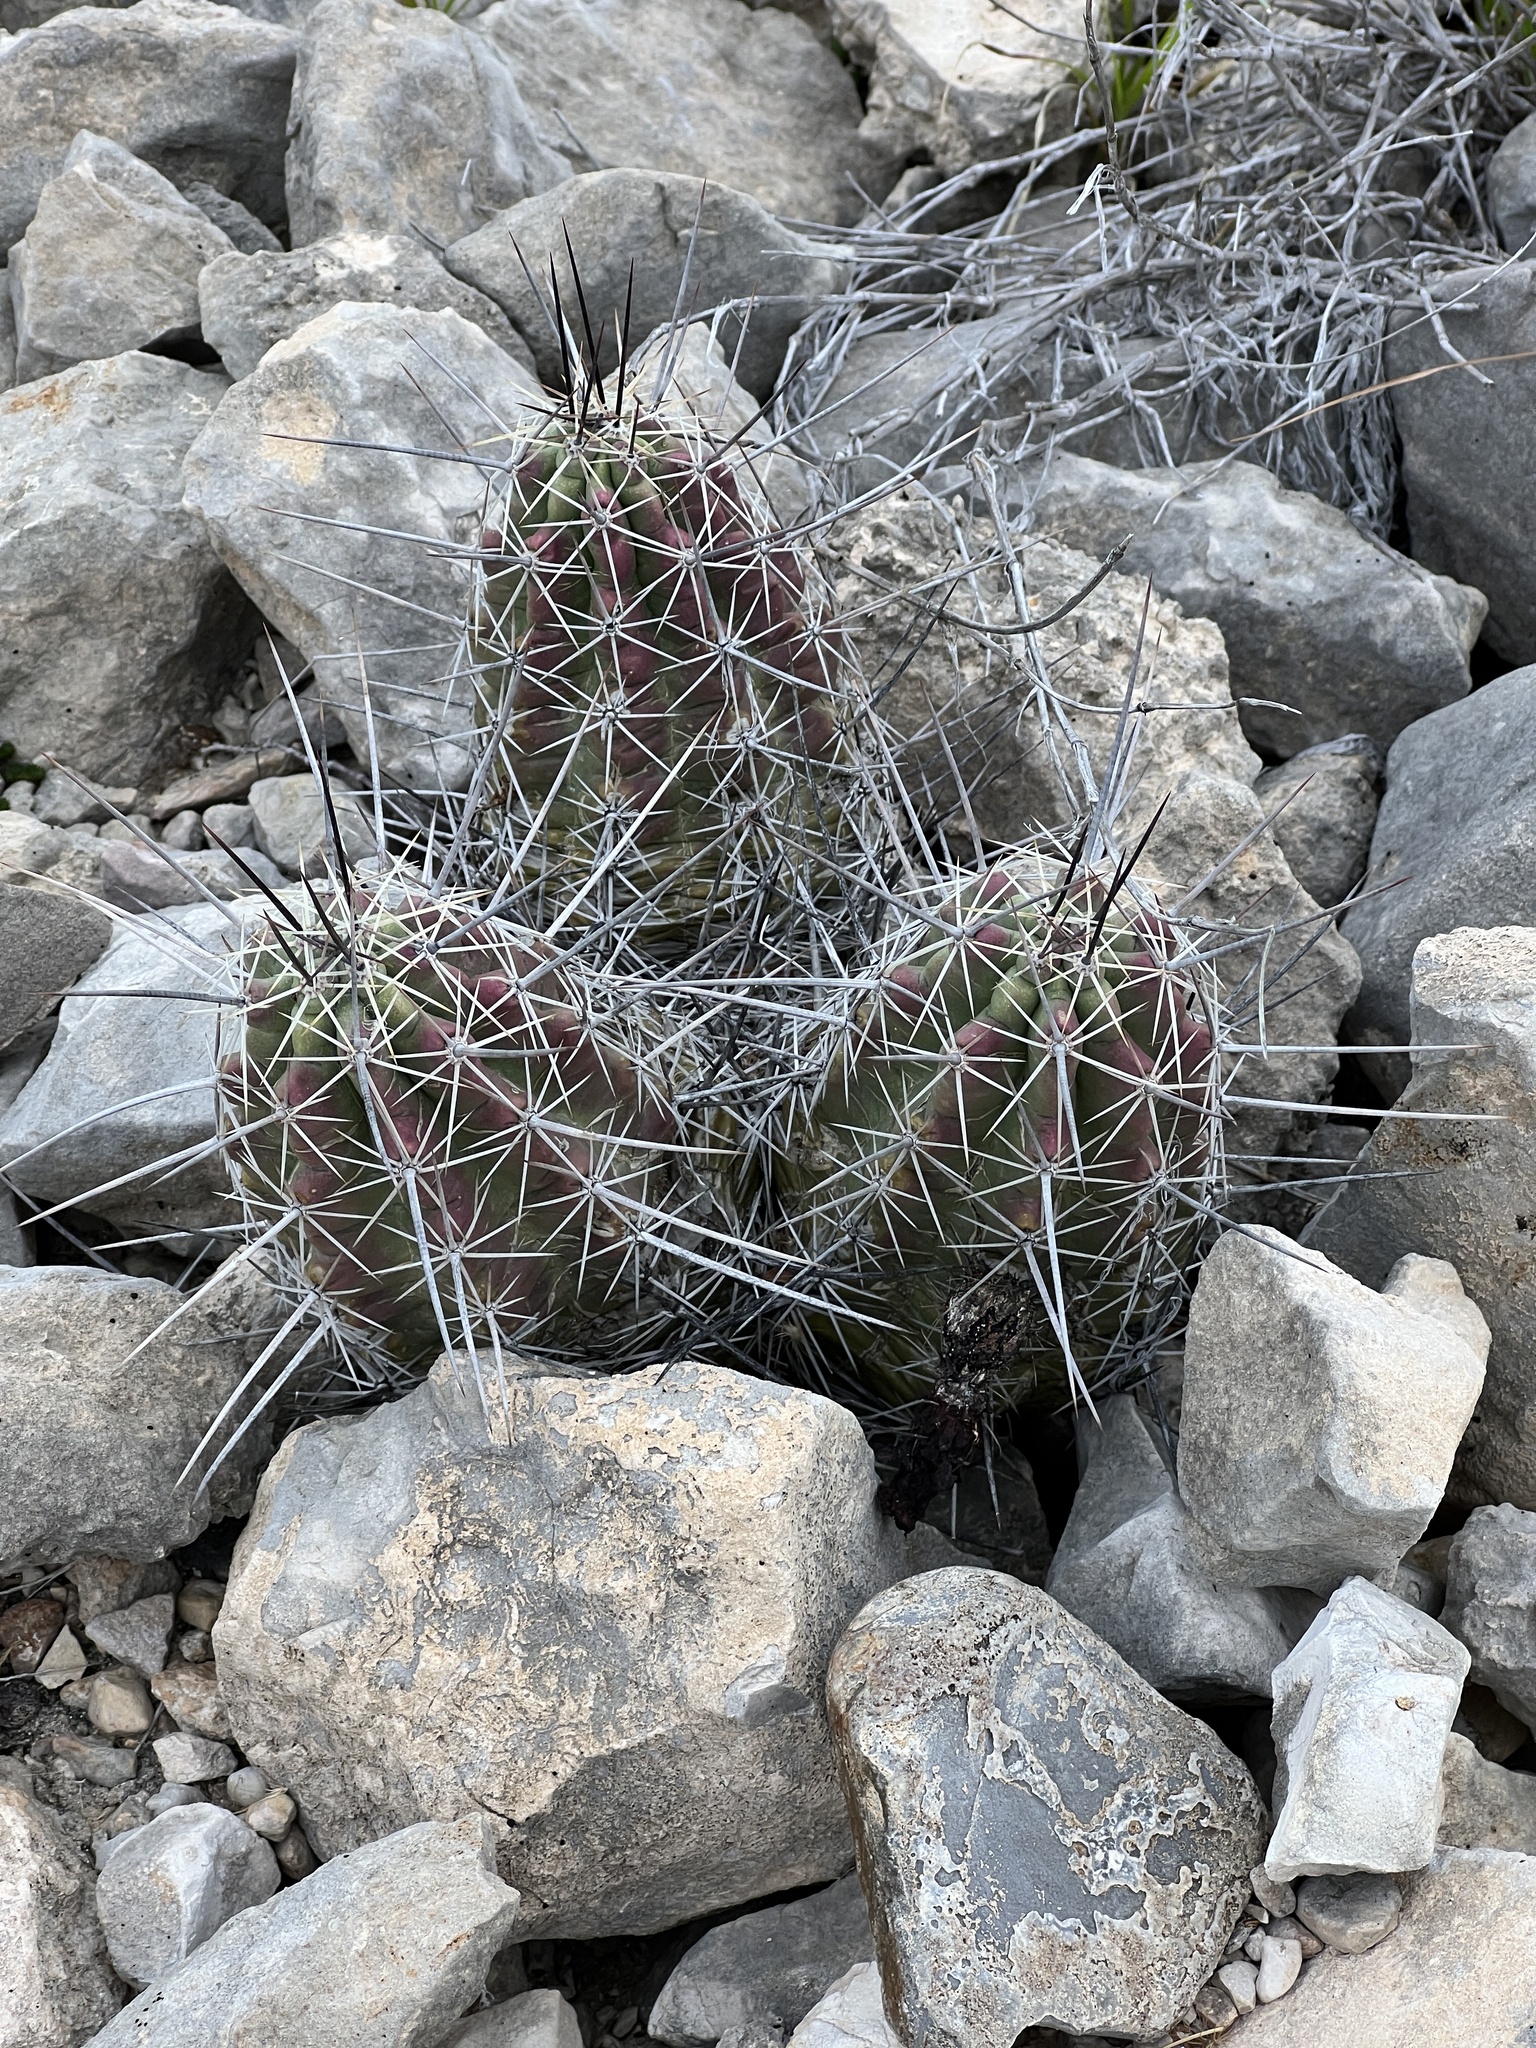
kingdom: Plantae
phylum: Tracheophyta
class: Magnoliopsida
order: Caryophyllales
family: Cactaceae
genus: Echinocereus
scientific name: Echinocereus enneacanthus
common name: Pitaya
